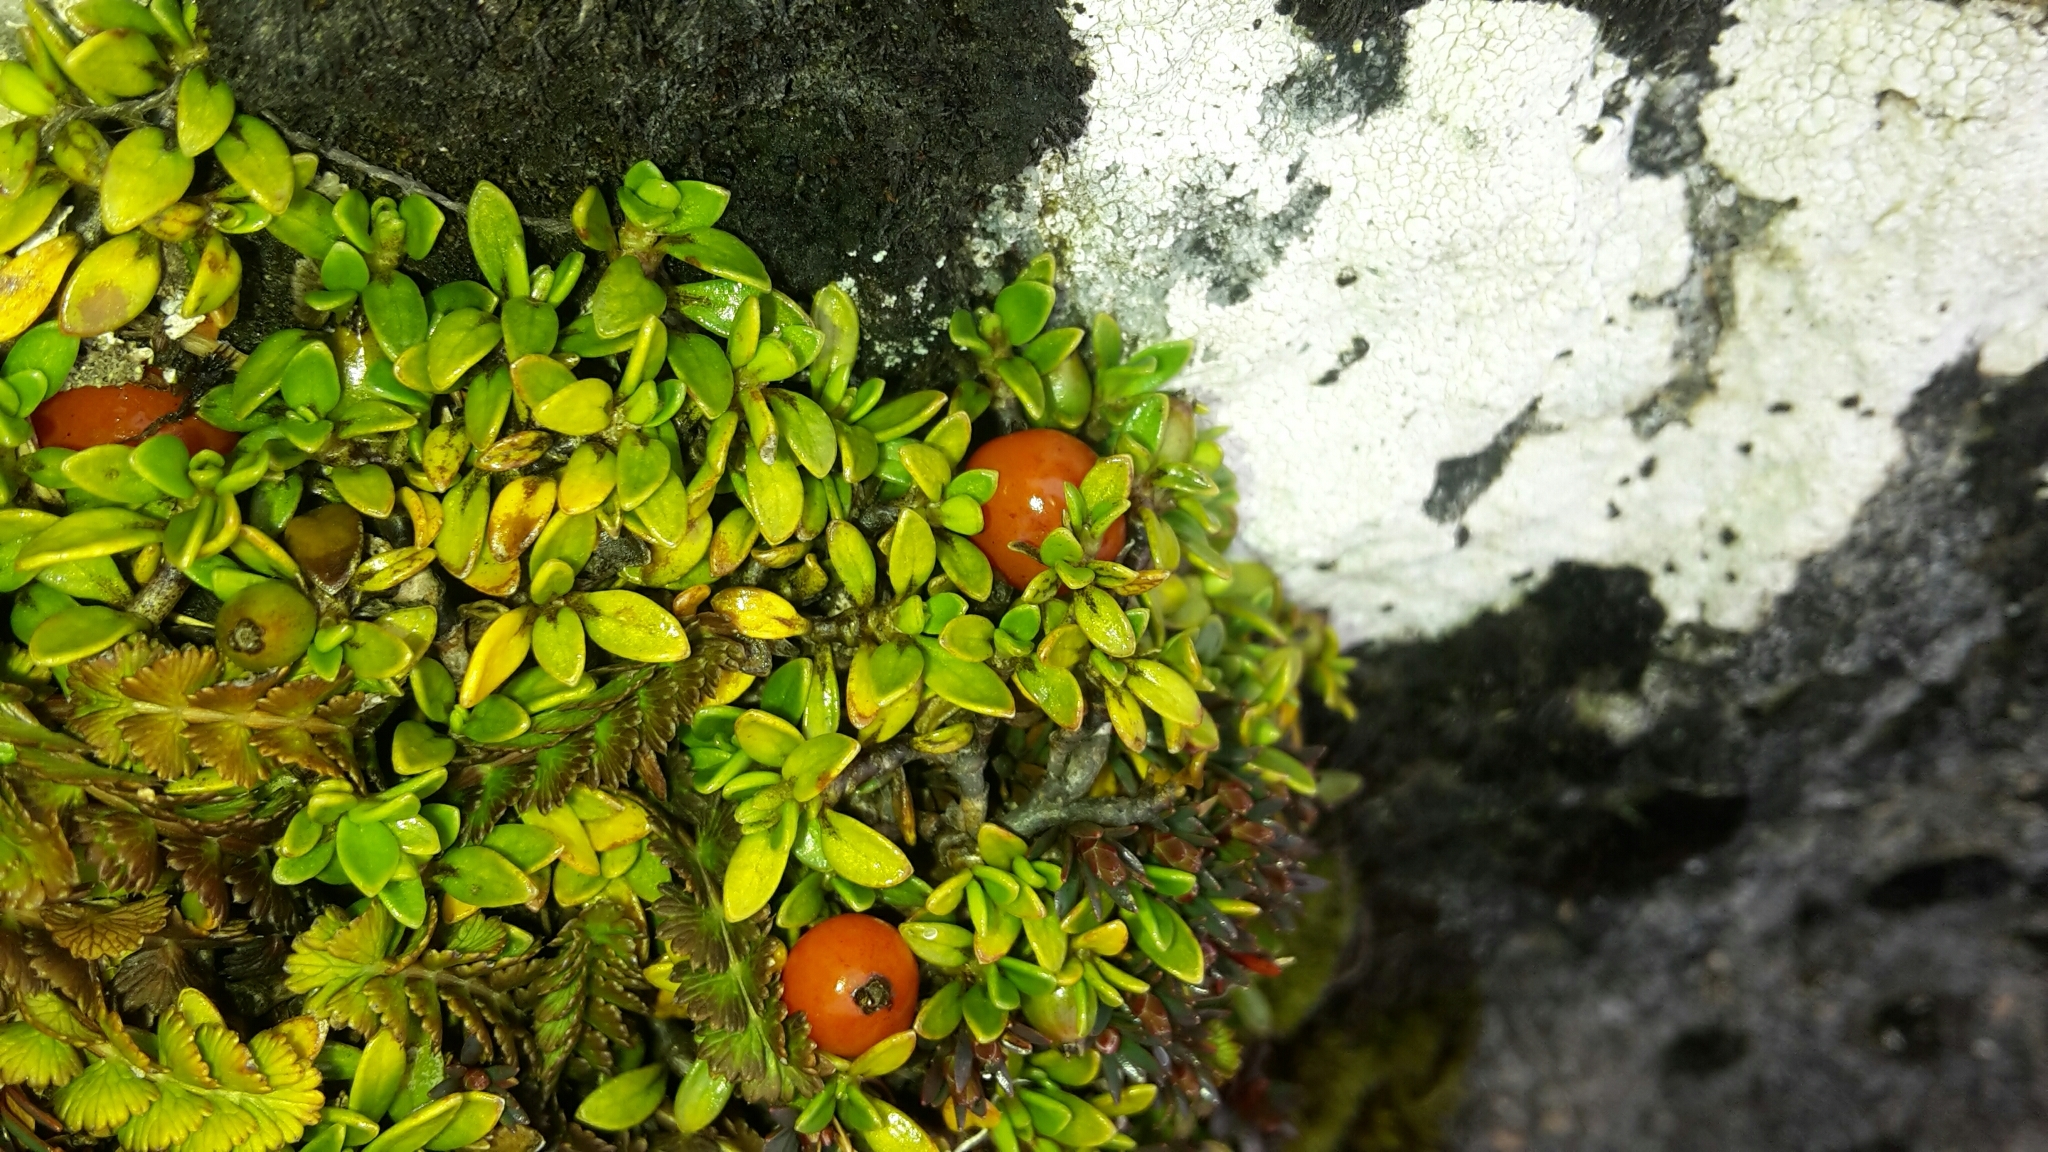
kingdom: Plantae
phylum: Tracheophyta
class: Magnoliopsida
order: Gentianales
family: Rubiaceae
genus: Coprosma
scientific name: Coprosma perpusilla
